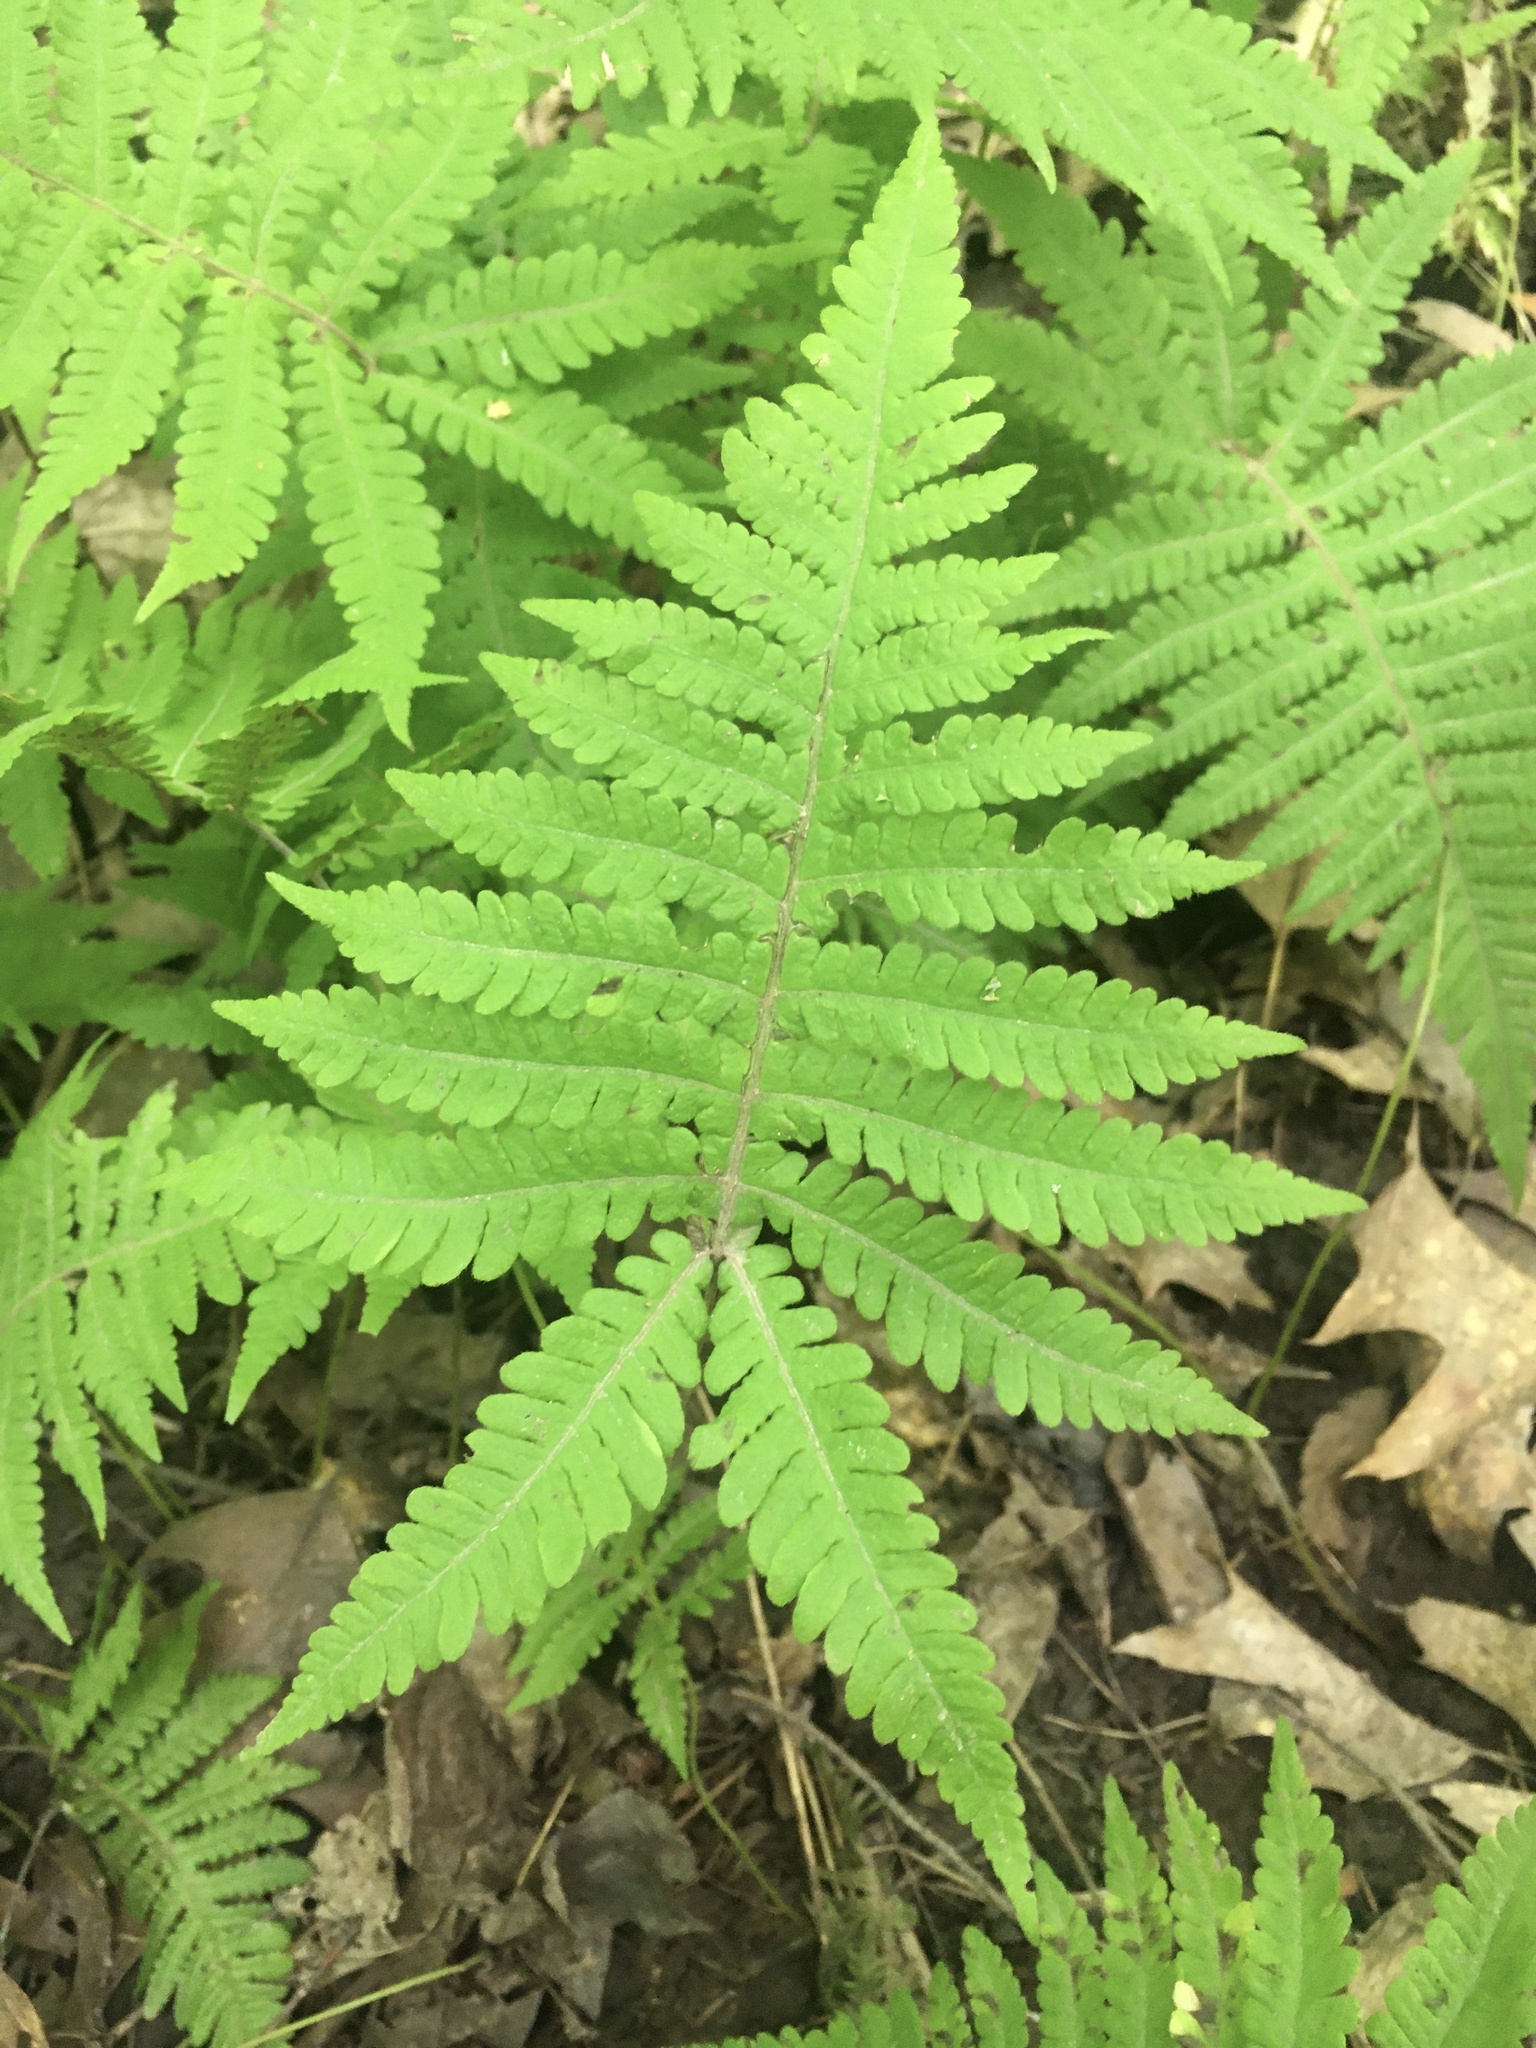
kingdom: Plantae
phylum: Tracheophyta
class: Polypodiopsida
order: Polypodiales
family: Thelypteridaceae
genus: Phegopteris
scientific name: Phegopteris connectilis
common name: Beech fern
